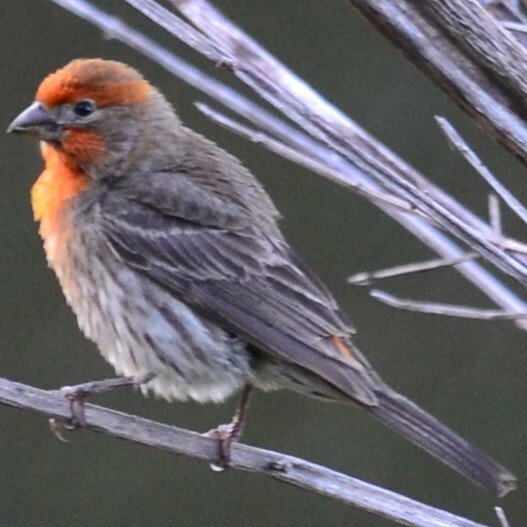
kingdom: Animalia
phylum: Chordata
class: Aves
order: Passeriformes
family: Fringillidae
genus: Haemorhous
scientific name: Haemorhous mexicanus
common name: House finch
